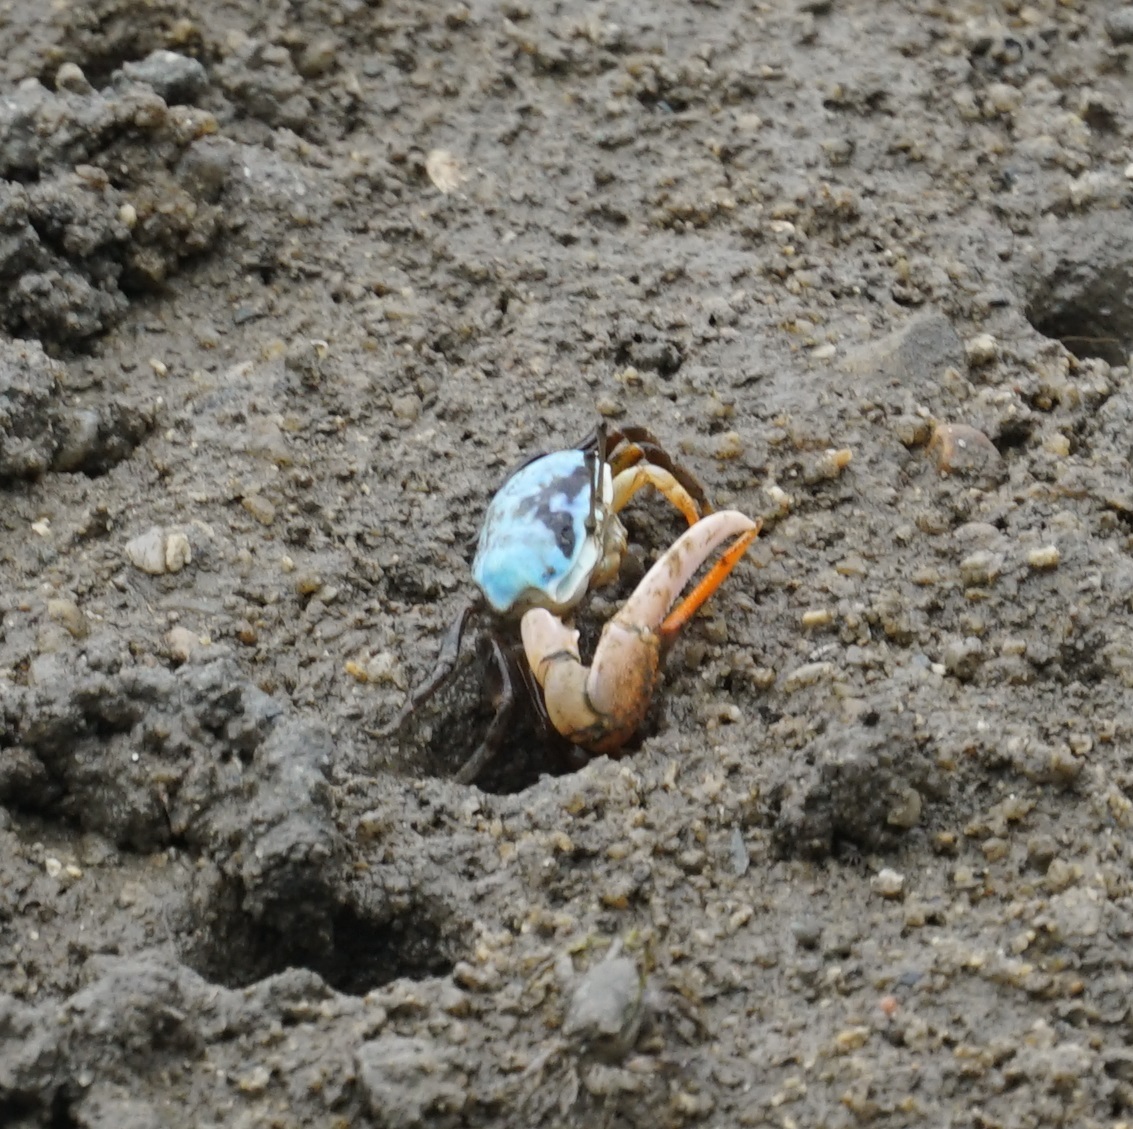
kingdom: Animalia
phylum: Arthropoda
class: Malacostraca
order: Decapoda
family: Ocypodidae
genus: Gelasimus
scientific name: Gelasimus vomeris
